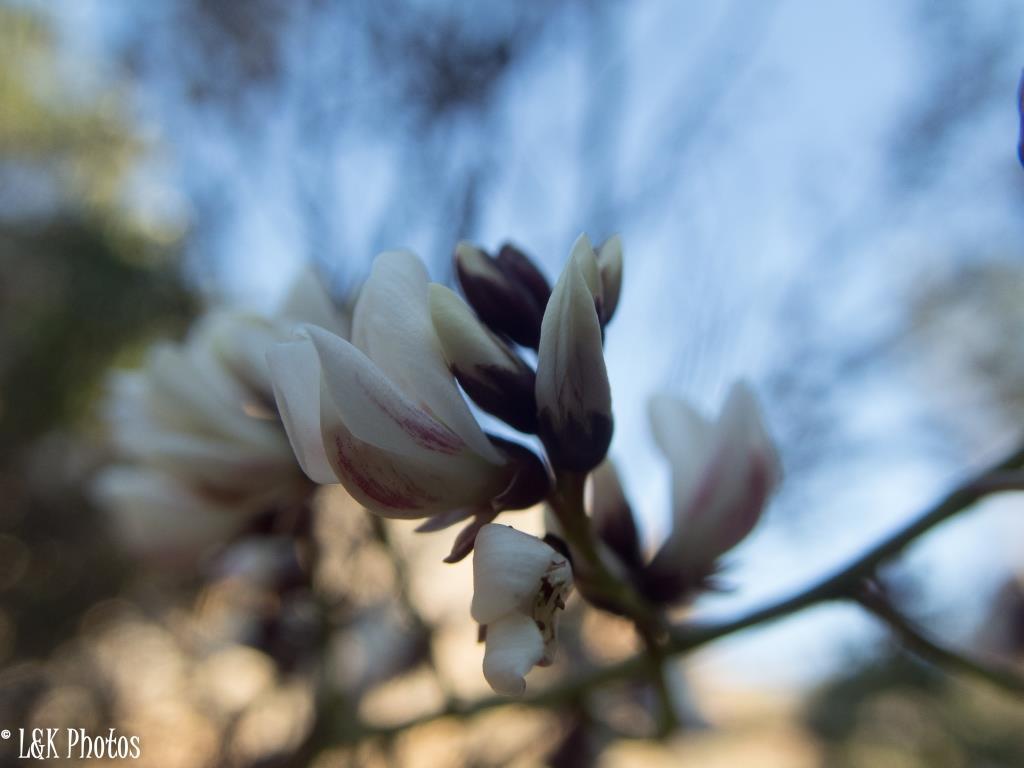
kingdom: Plantae
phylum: Tracheophyta
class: Magnoliopsida
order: Fabales
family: Fabaceae
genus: Dalbergia
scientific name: Dalbergia pervillei
